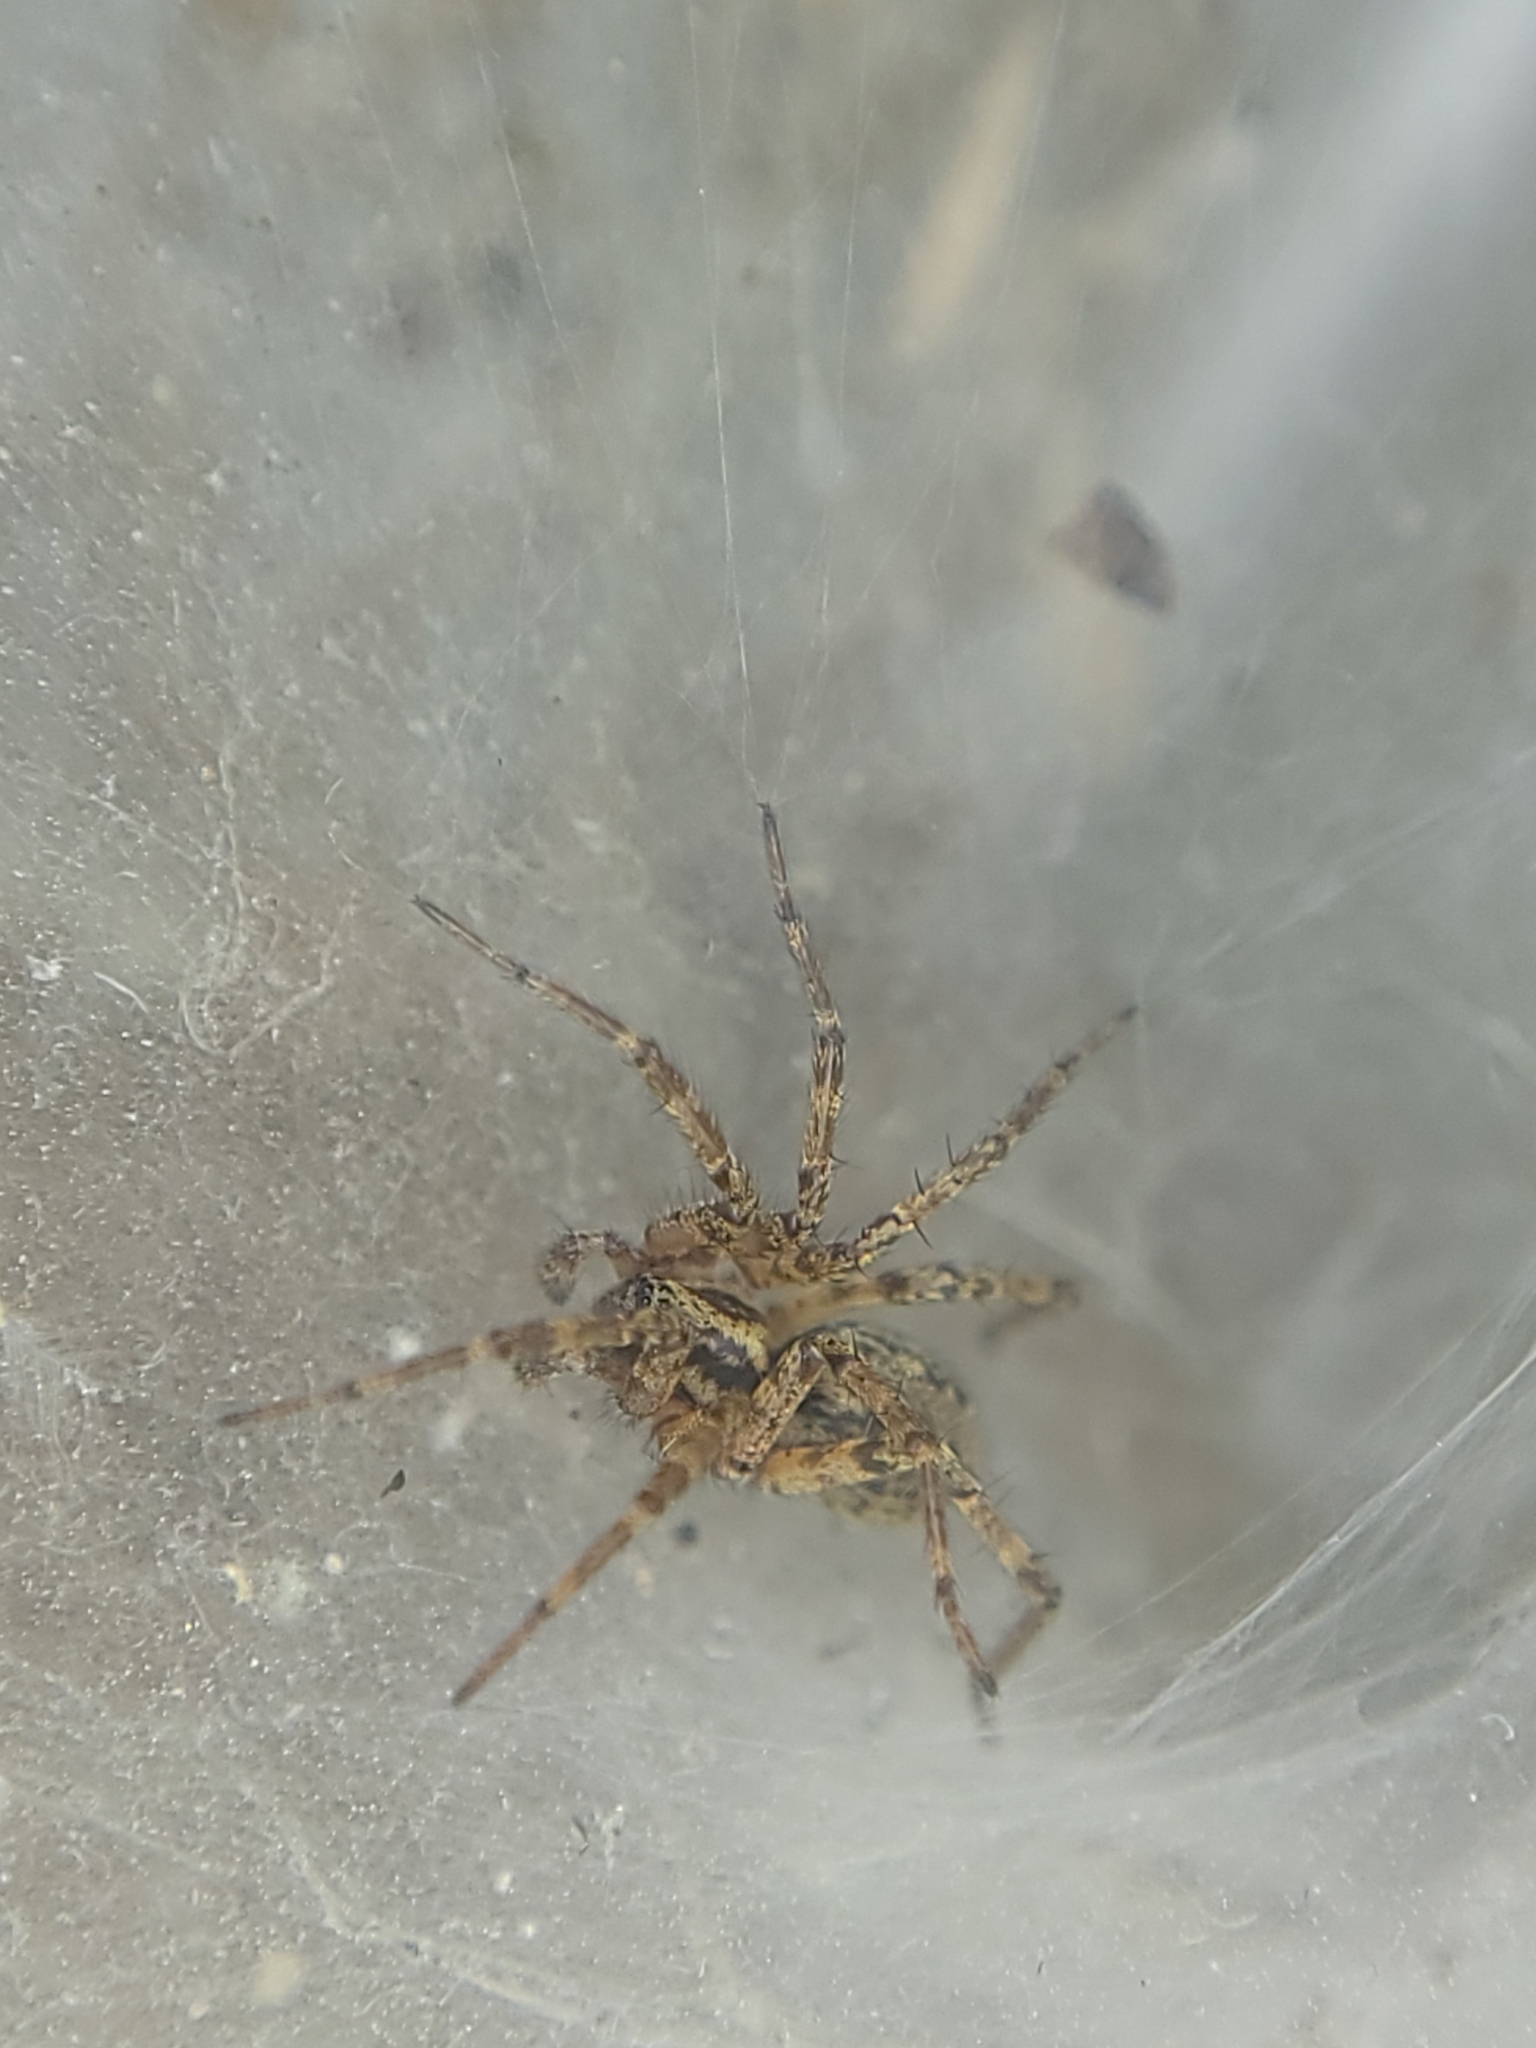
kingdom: Animalia
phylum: Arthropoda
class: Arachnida
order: Araneae
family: Agelenidae
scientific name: Agelenidae
